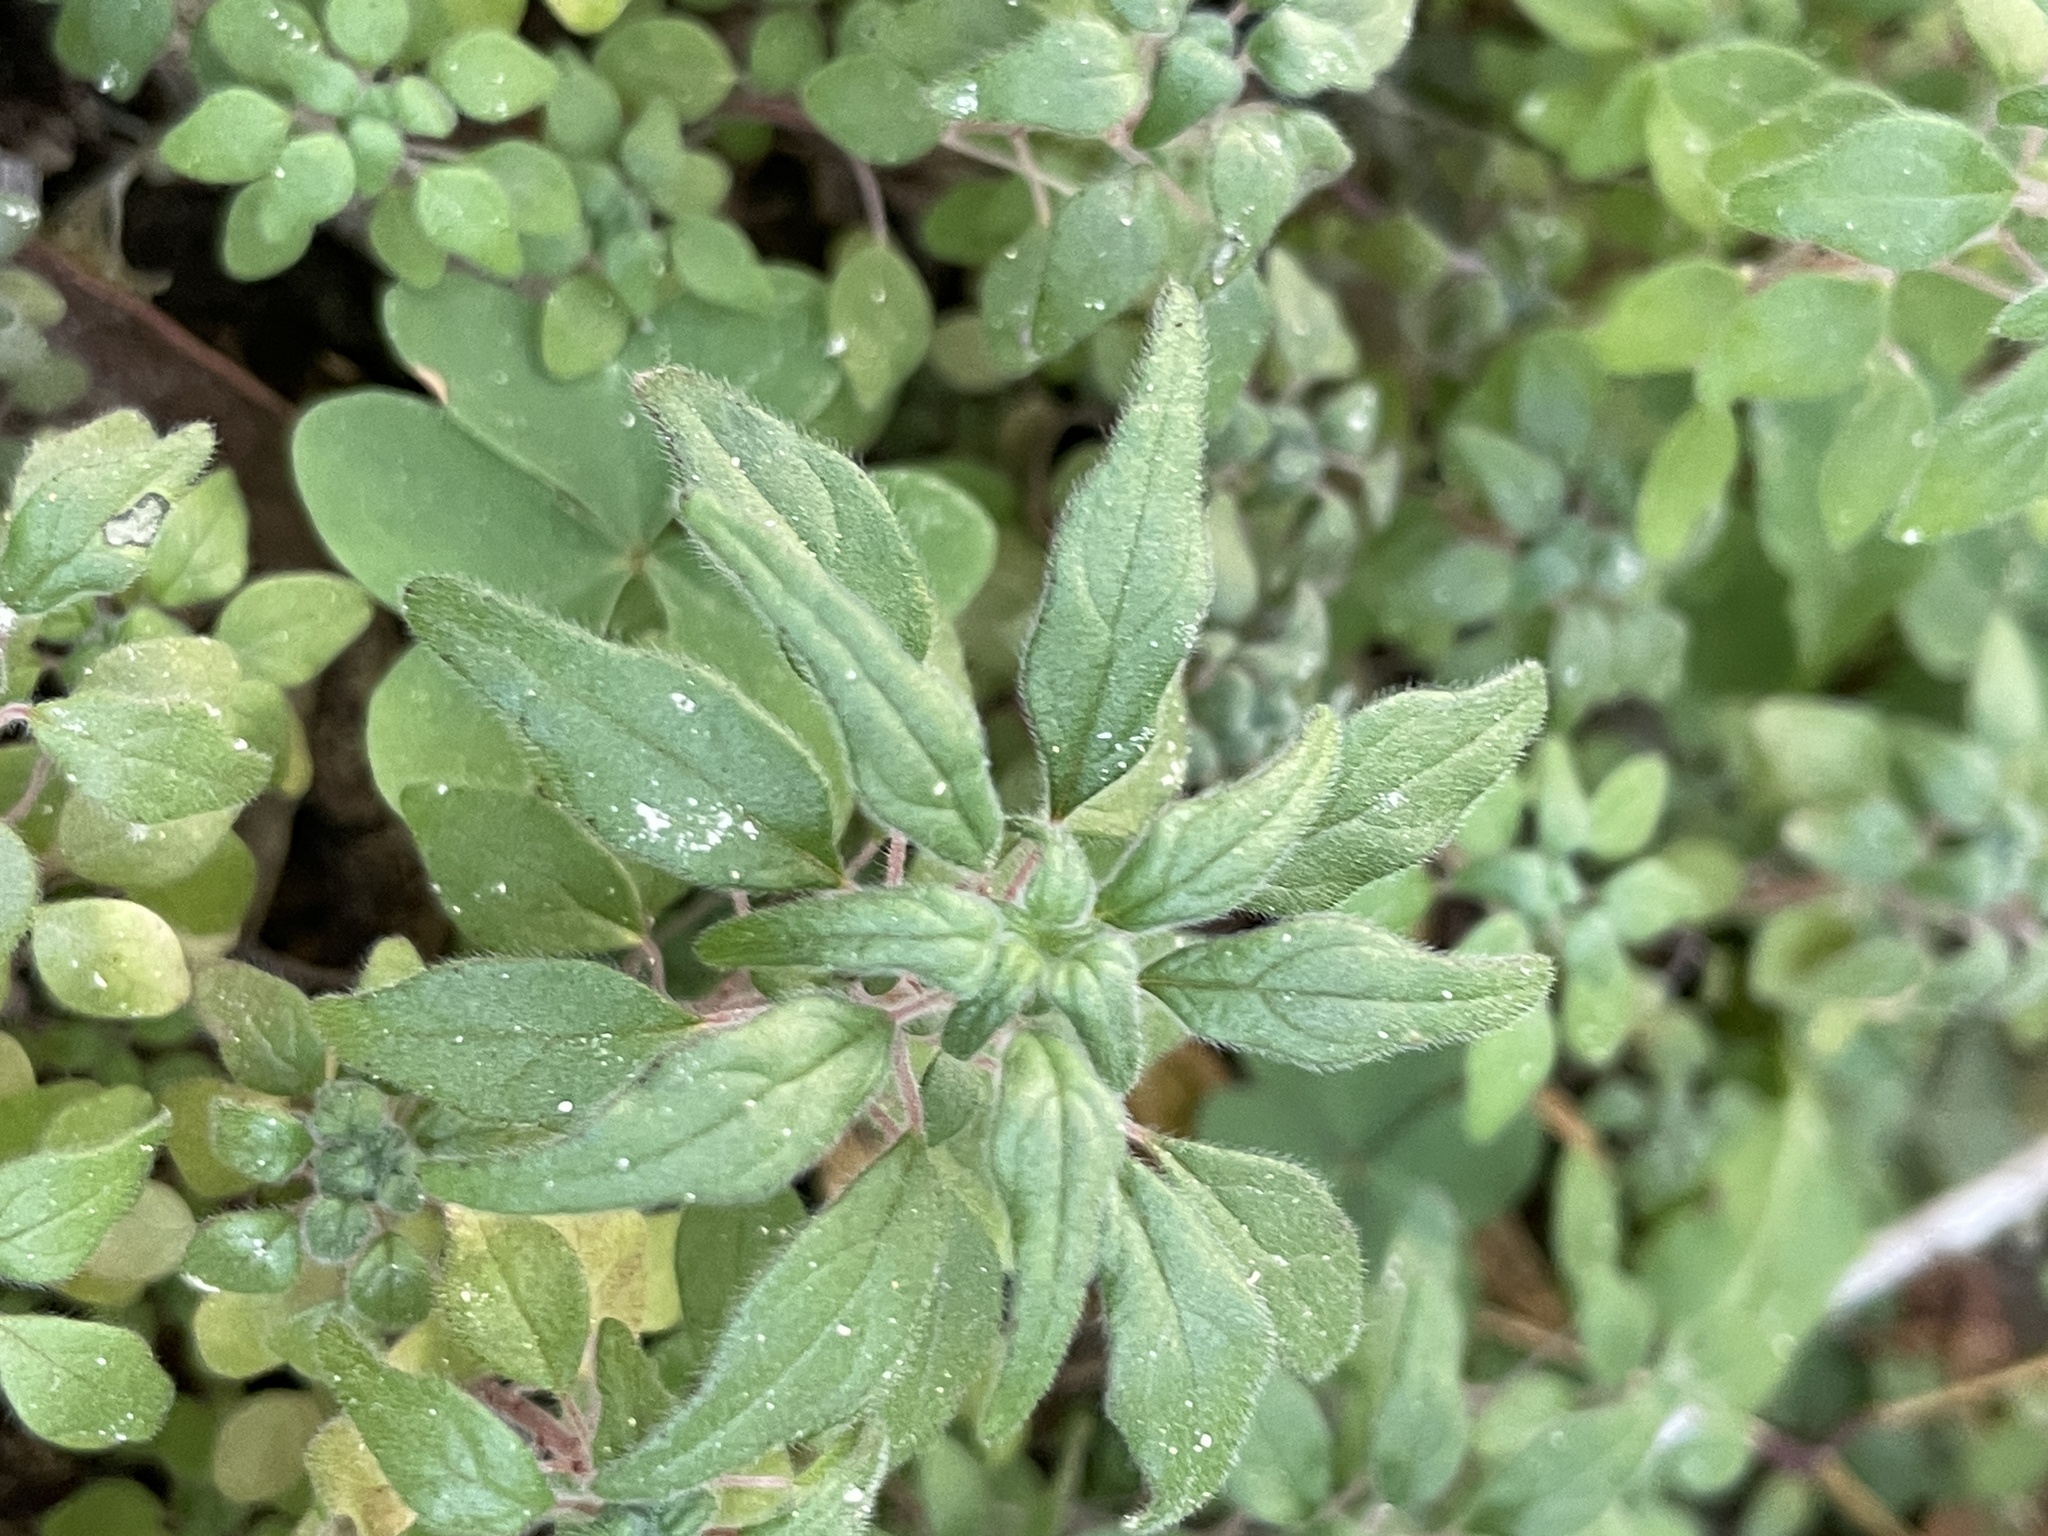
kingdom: Plantae
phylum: Tracheophyta
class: Magnoliopsida
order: Rosales
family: Urticaceae
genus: Parietaria
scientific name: Parietaria pensylvanica
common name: Pennsylvania pellitory
